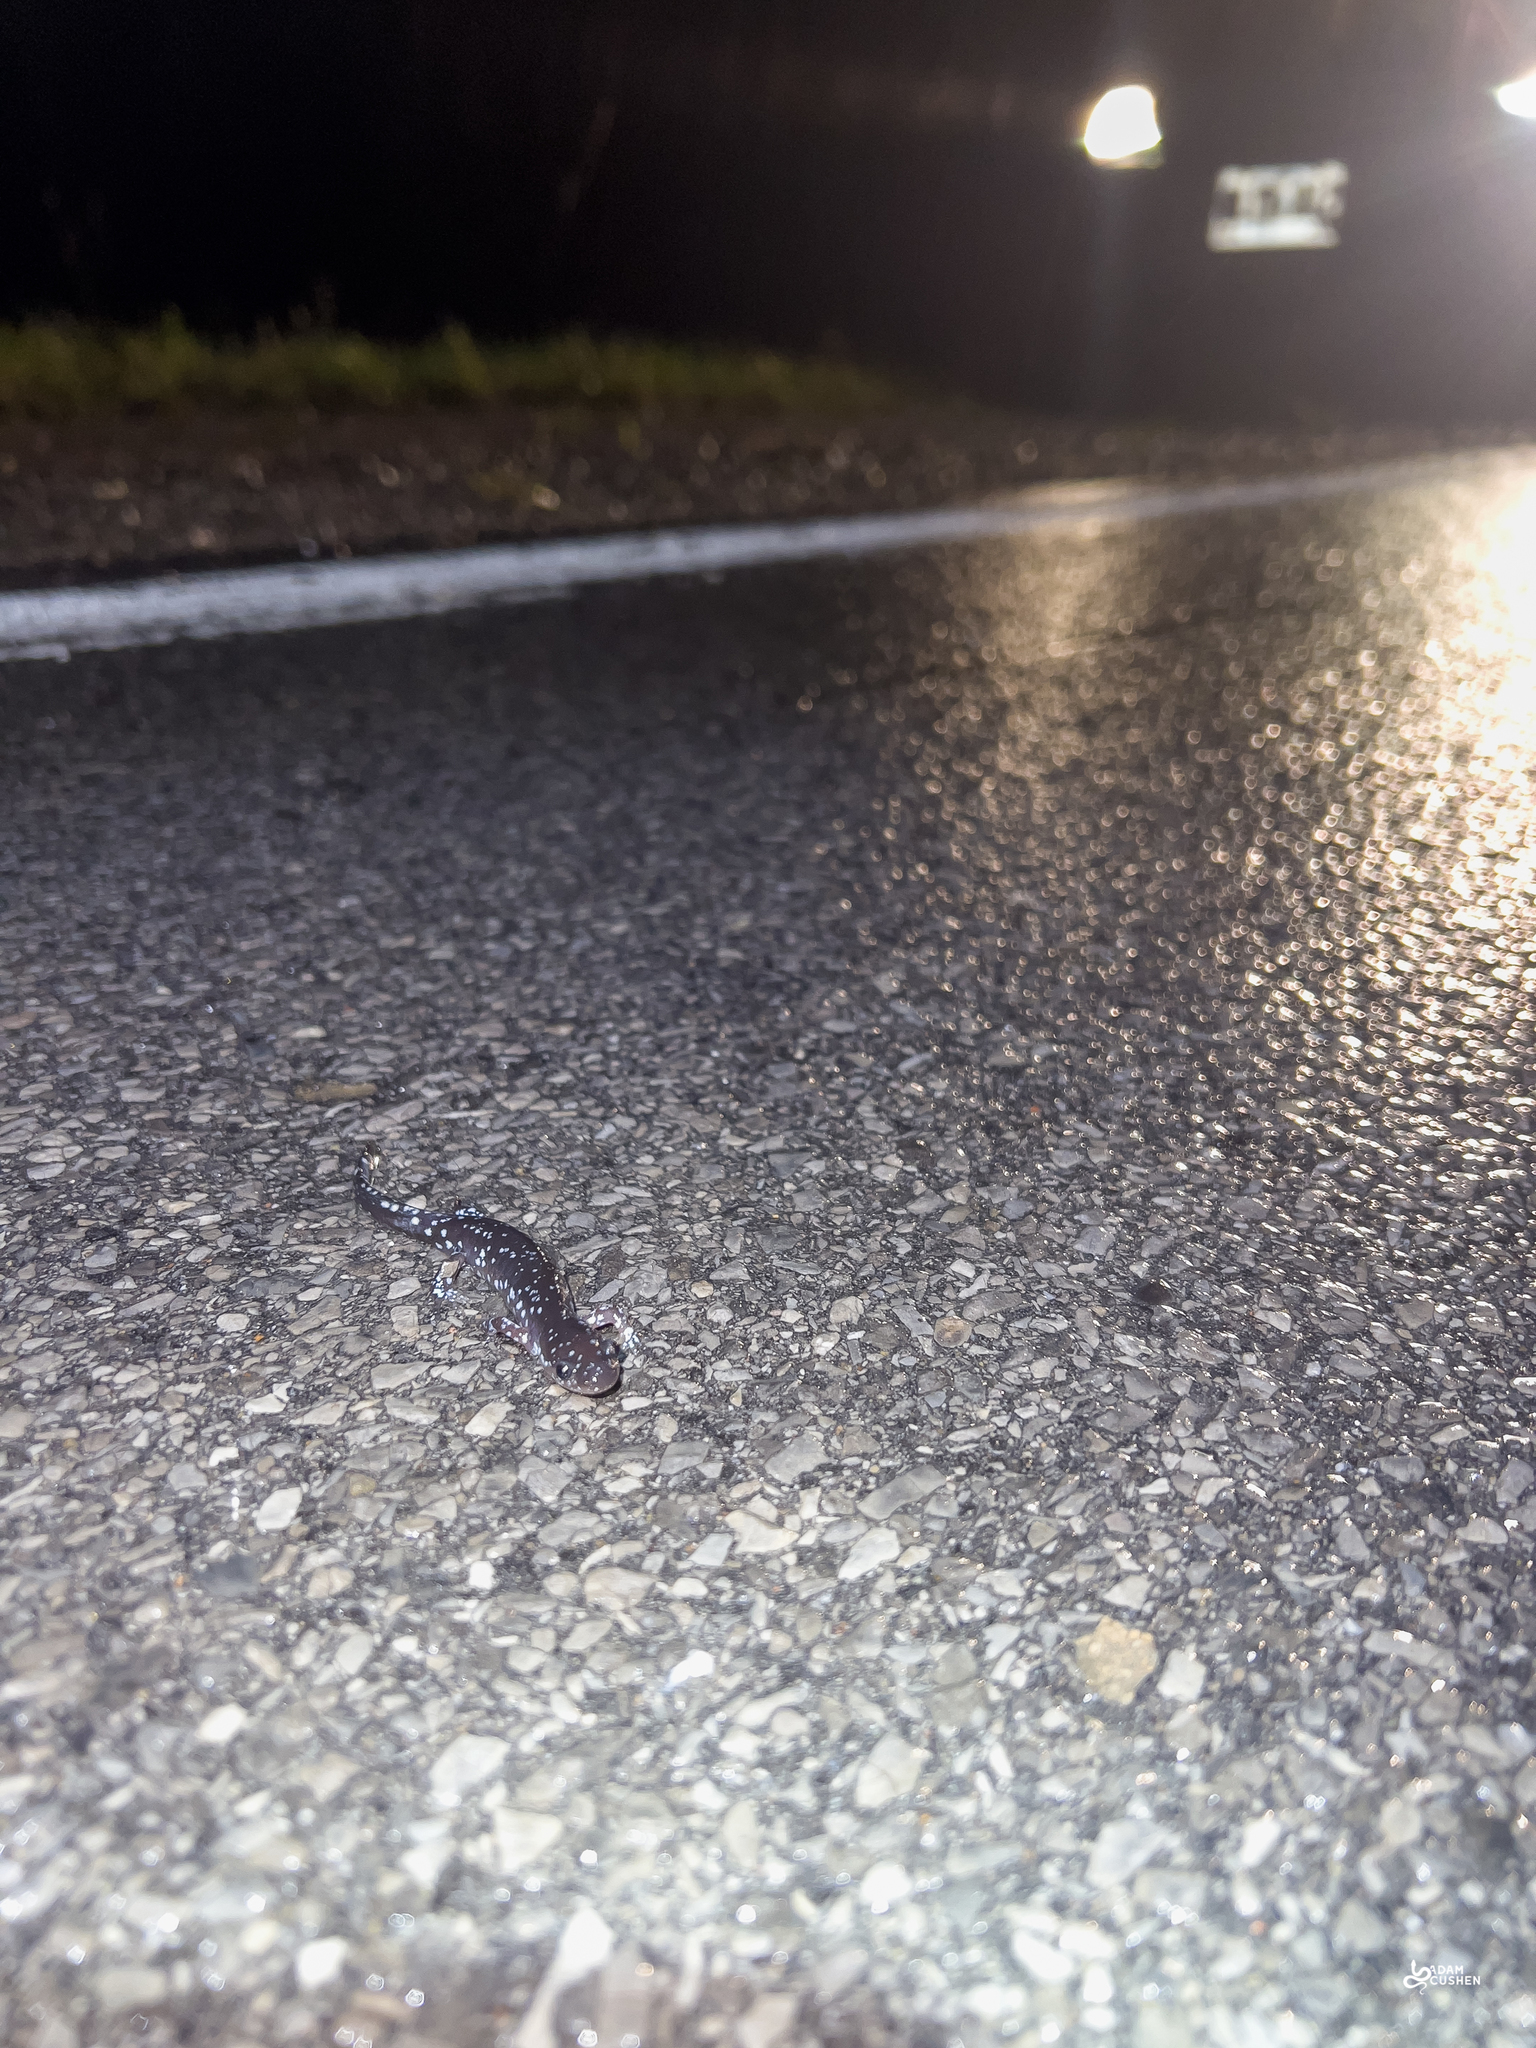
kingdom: Animalia
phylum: Chordata
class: Amphibia
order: Caudata
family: Ambystomatidae
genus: Ambystoma
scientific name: Ambystoma laterale
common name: Blue-spotted salamander
